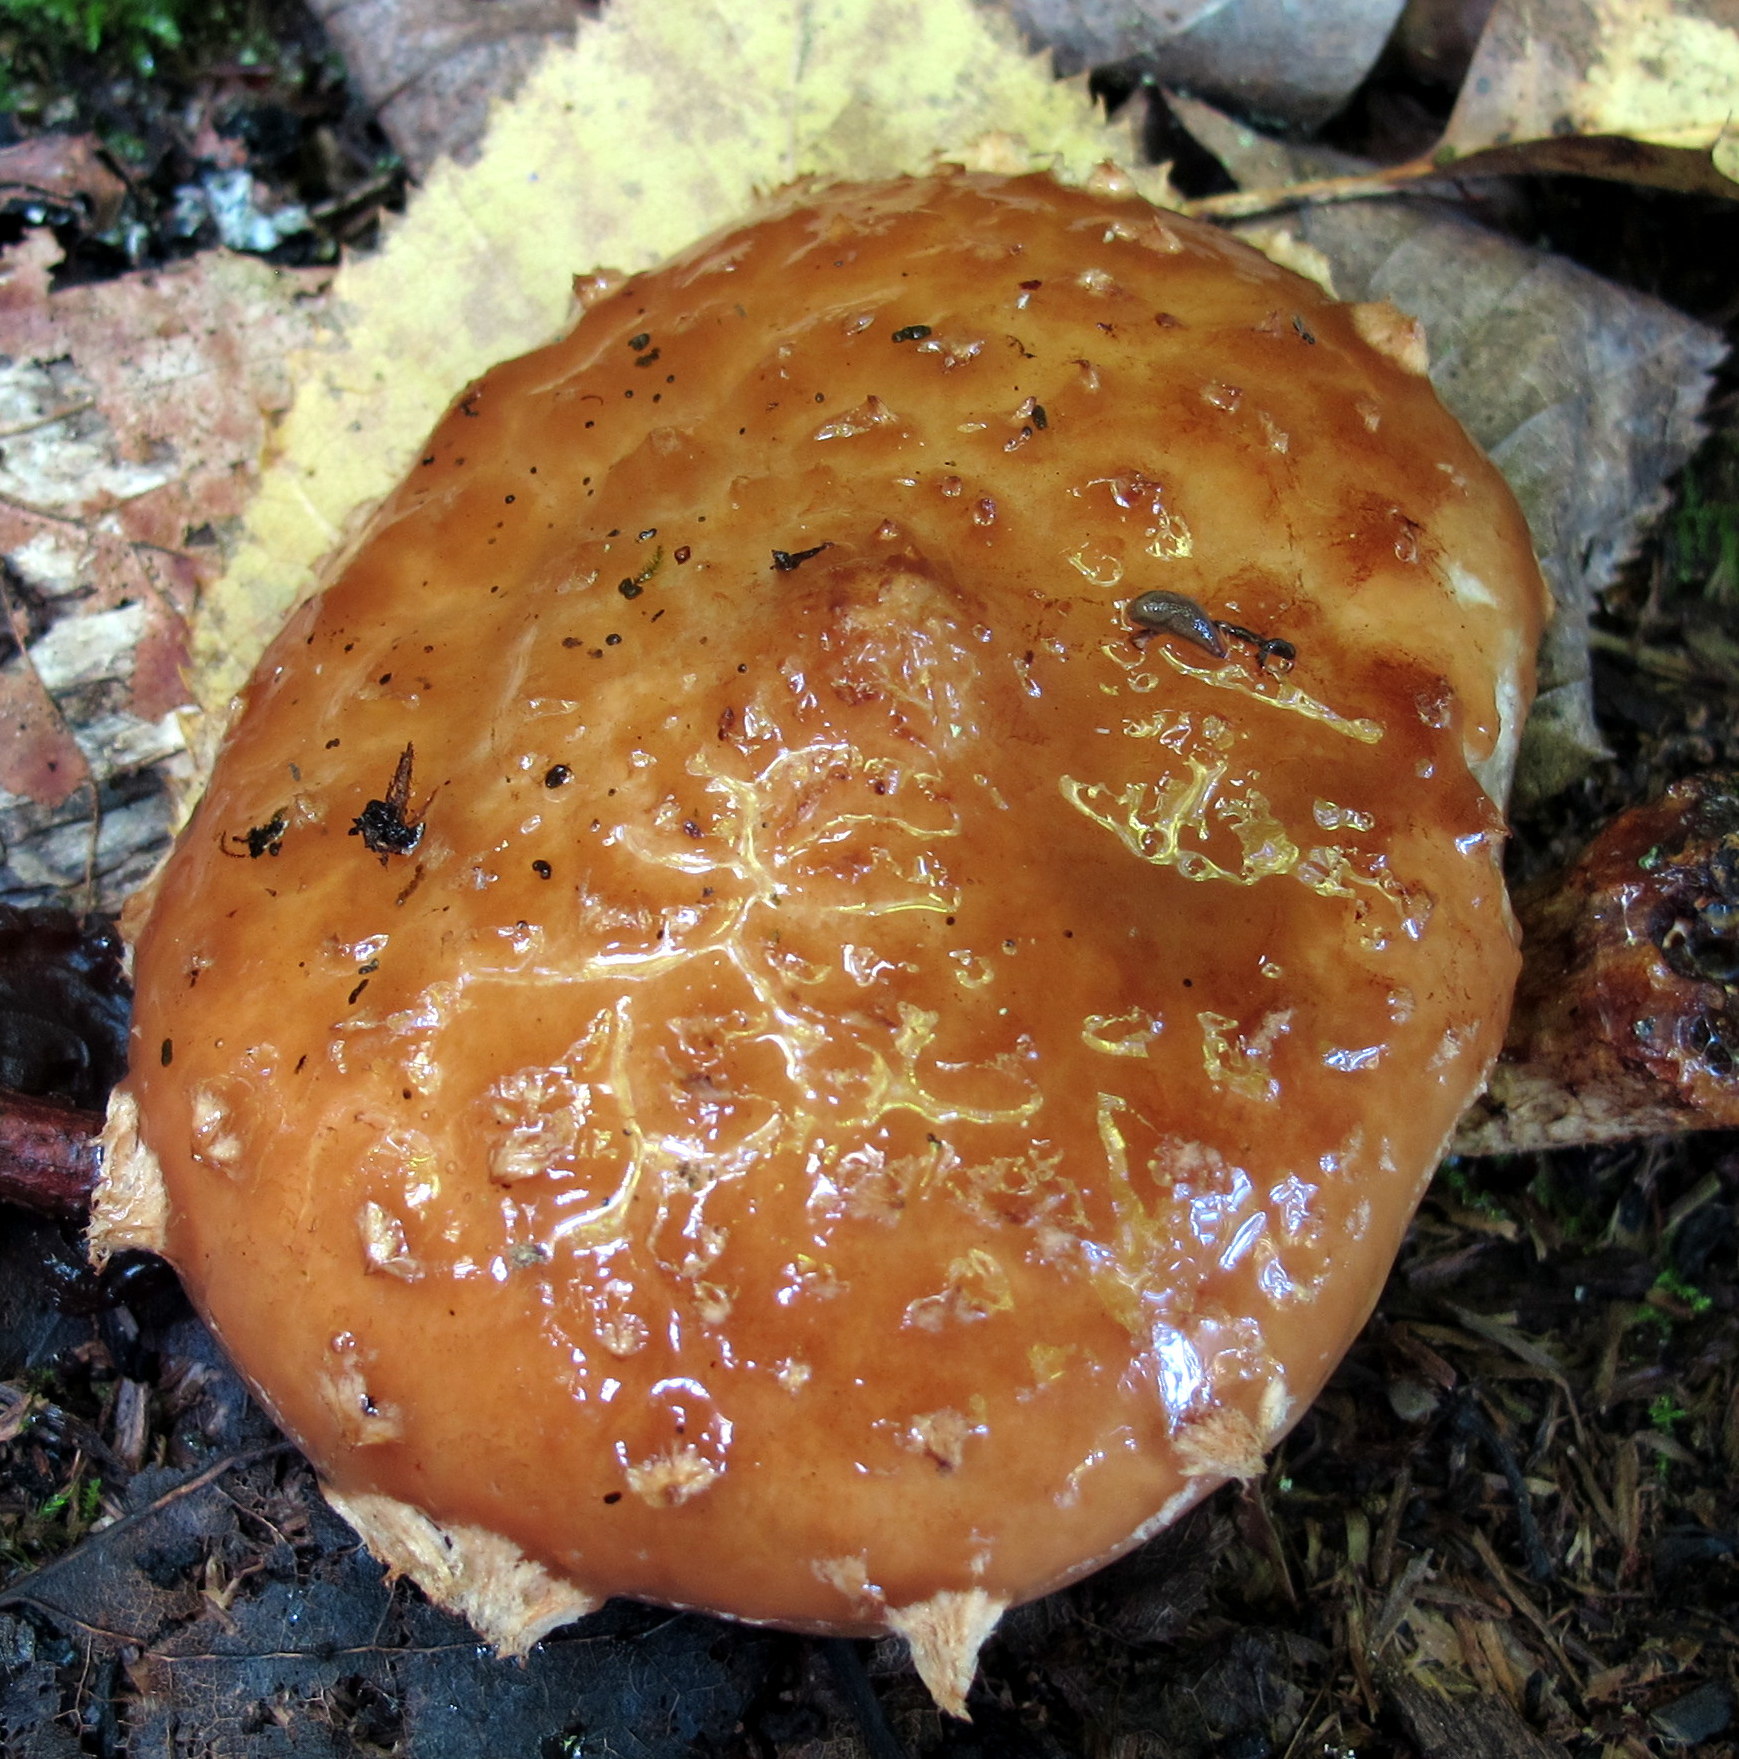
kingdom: Fungi
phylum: Basidiomycota
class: Agaricomycetes
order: Agaricales
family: Tubariaceae
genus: Hemistropharia
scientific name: Hemistropharia albocrenulata
